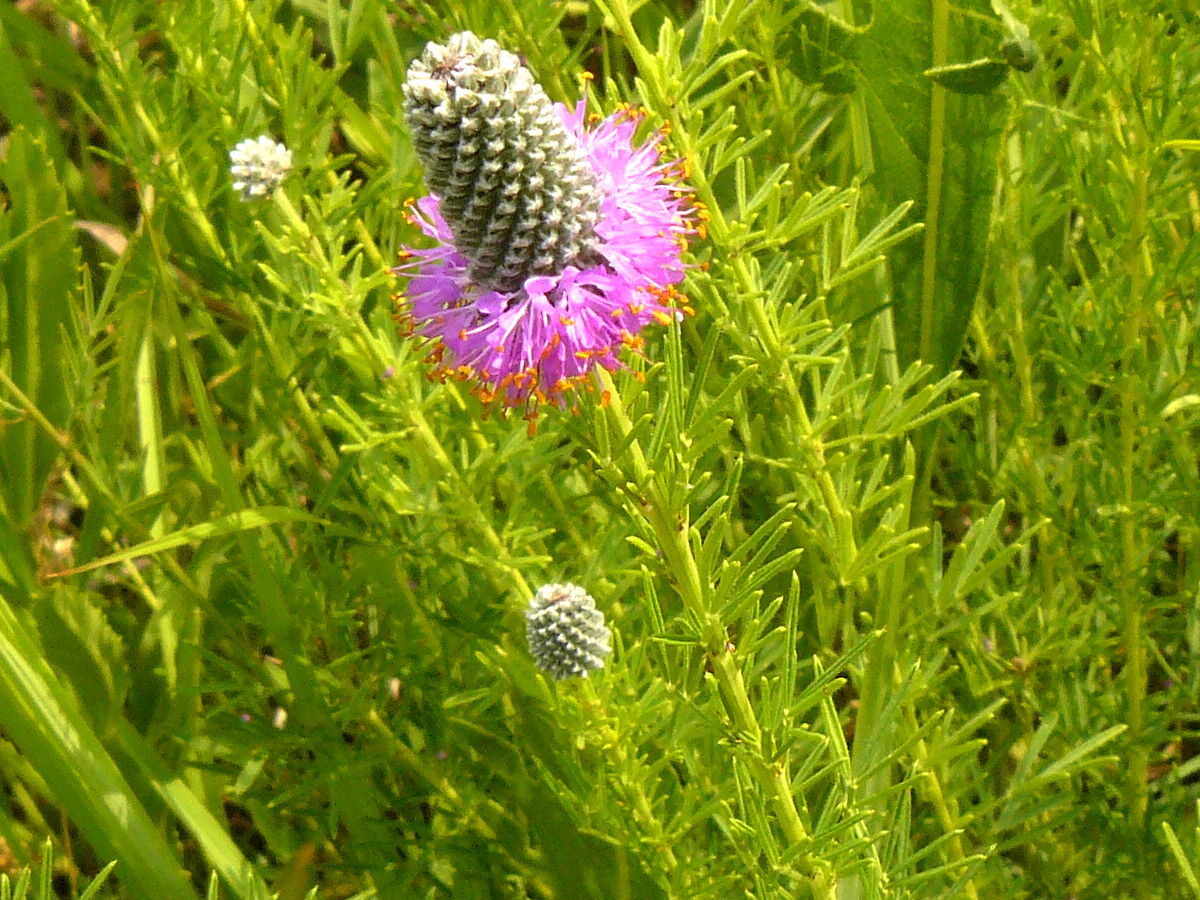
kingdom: Plantae
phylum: Tracheophyta
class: Magnoliopsida
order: Fabales
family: Fabaceae
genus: Dalea
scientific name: Dalea purpurea
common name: Purple prairie-clover
